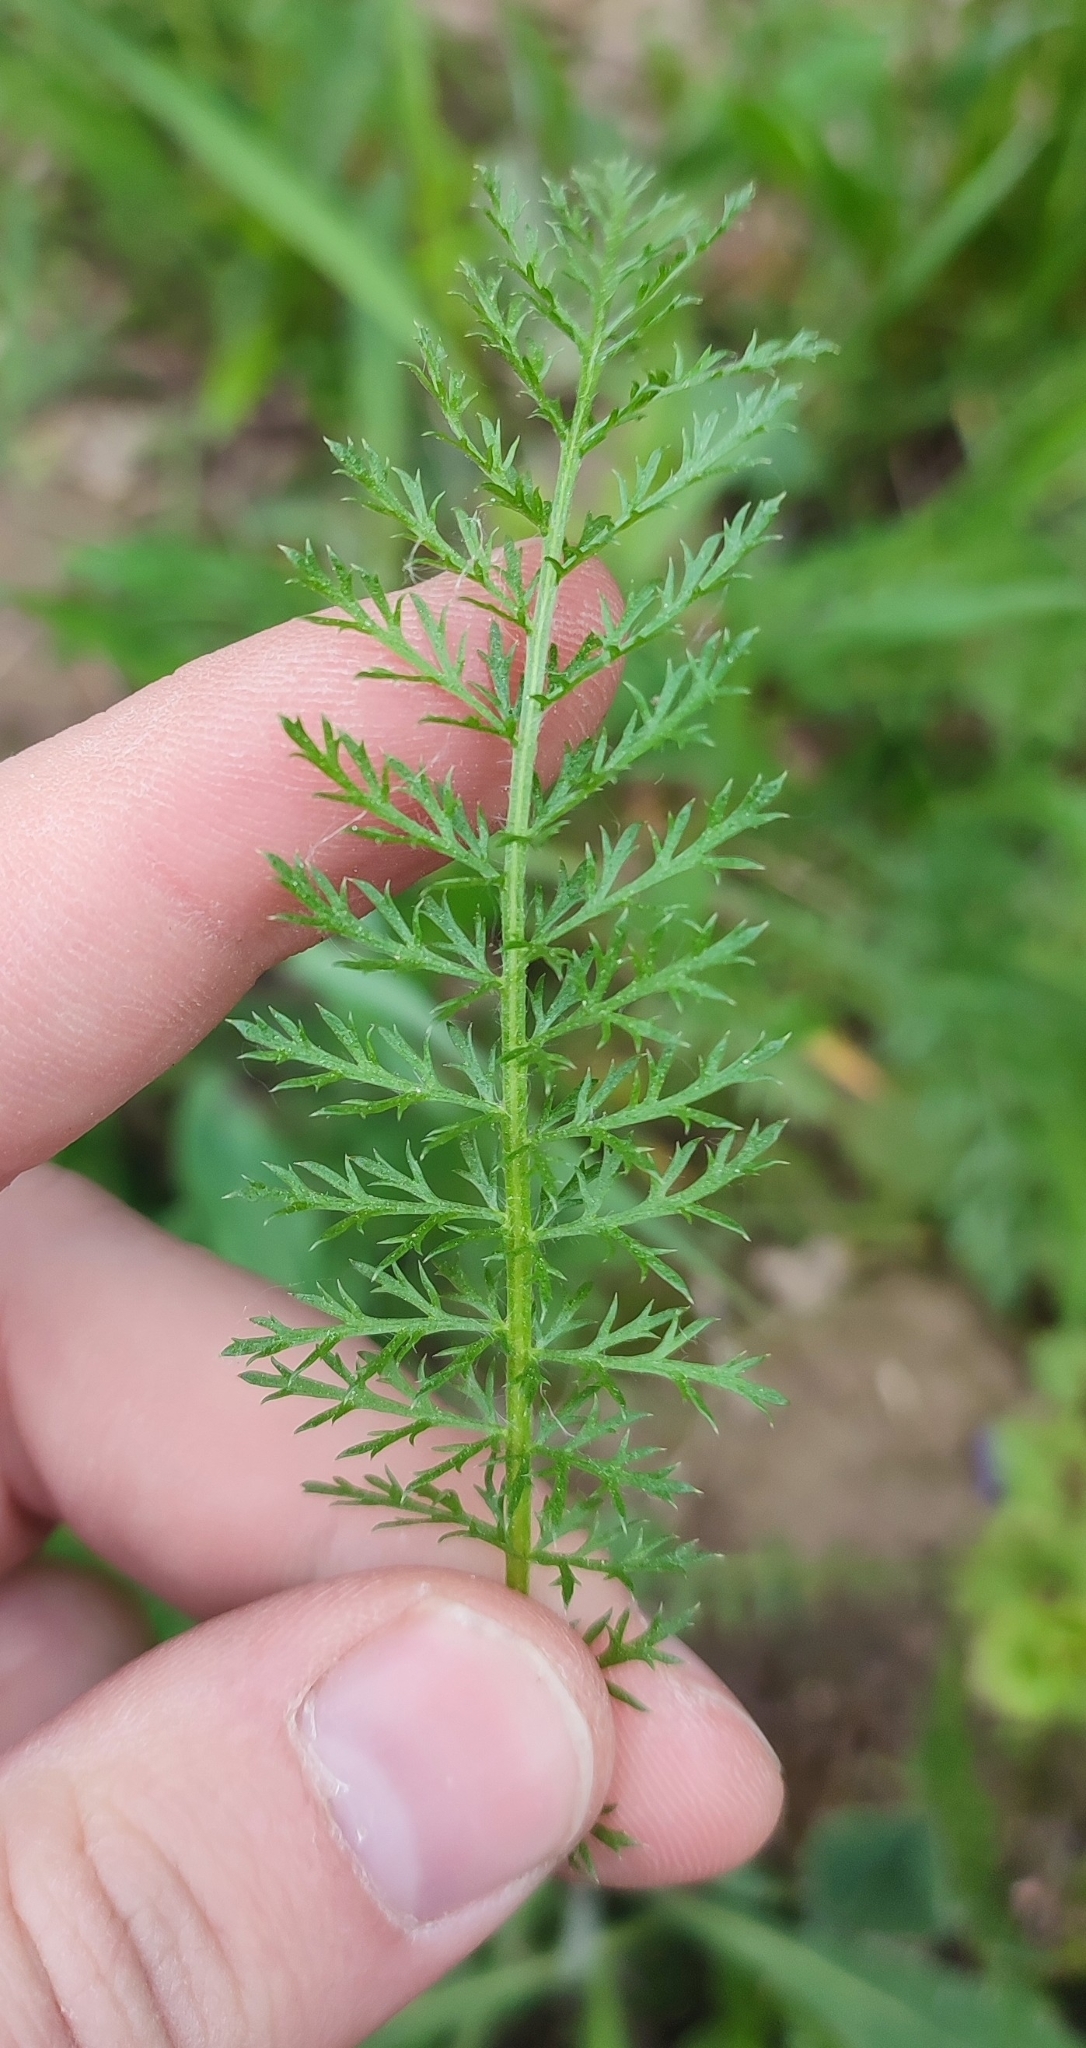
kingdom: Plantae
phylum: Tracheophyta
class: Magnoliopsida
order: Asterales
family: Asteraceae
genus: Achillea
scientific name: Achillea asiatica
